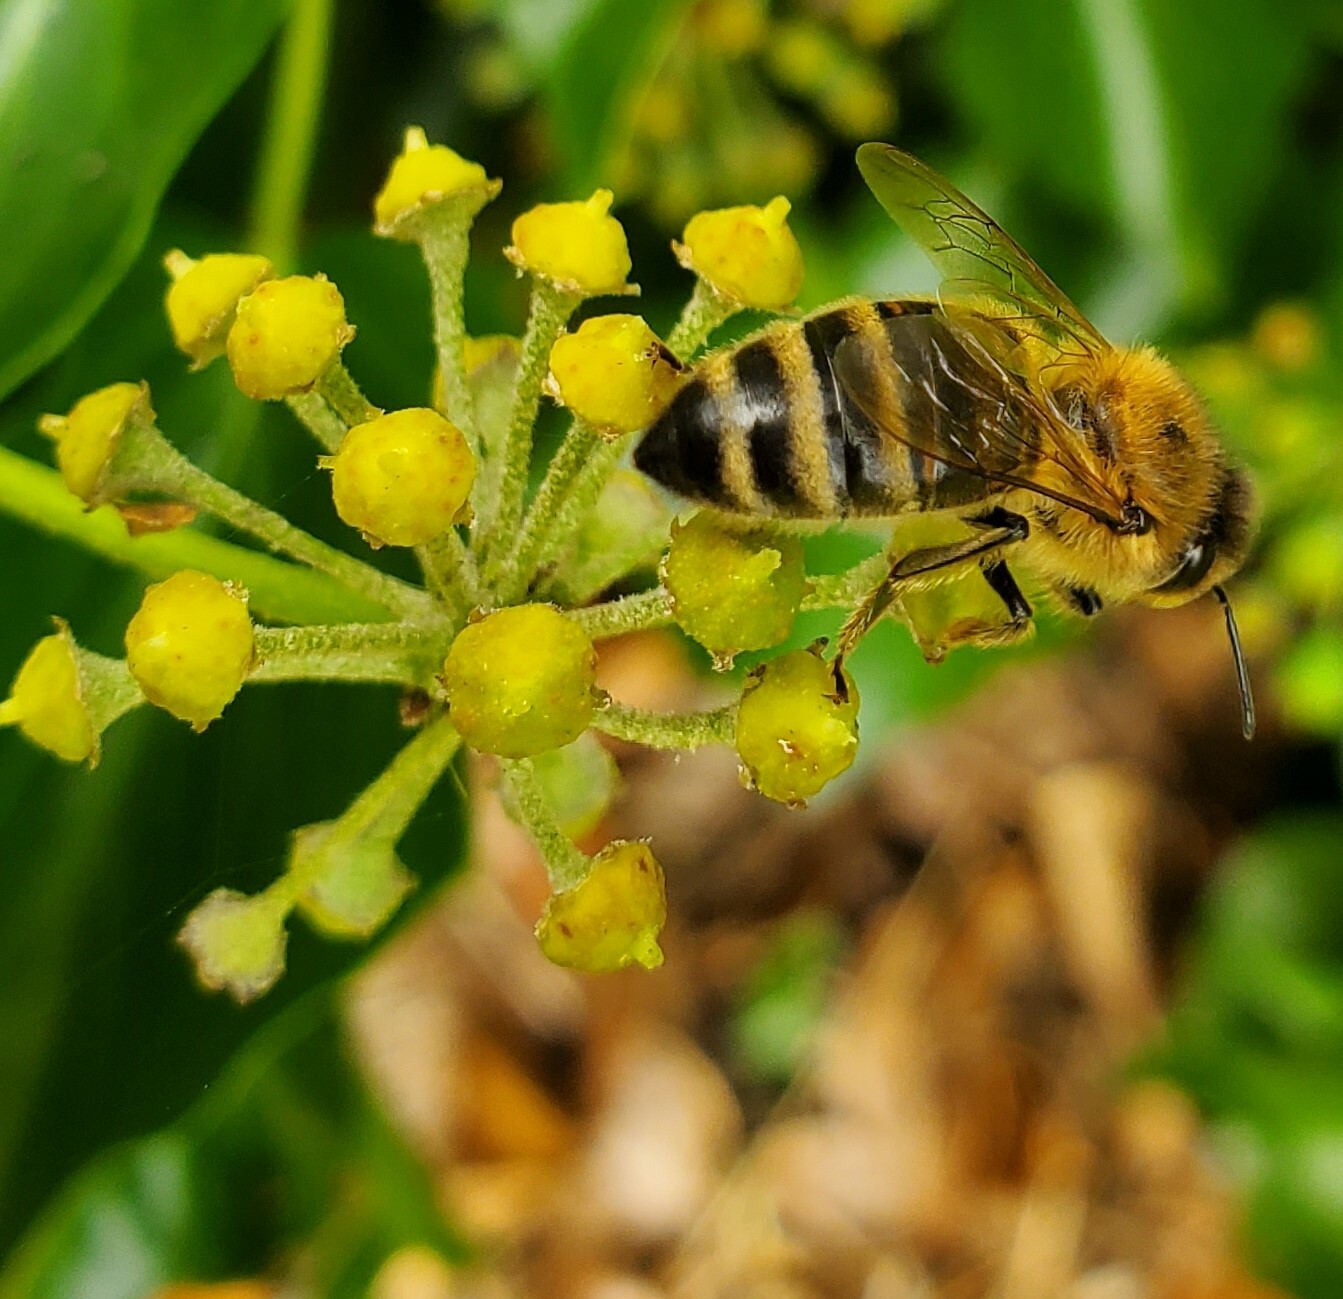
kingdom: Animalia
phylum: Arthropoda
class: Insecta
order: Hymenoptera
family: Apidae
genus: Apis
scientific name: Apis mellifera
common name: Honey bee
